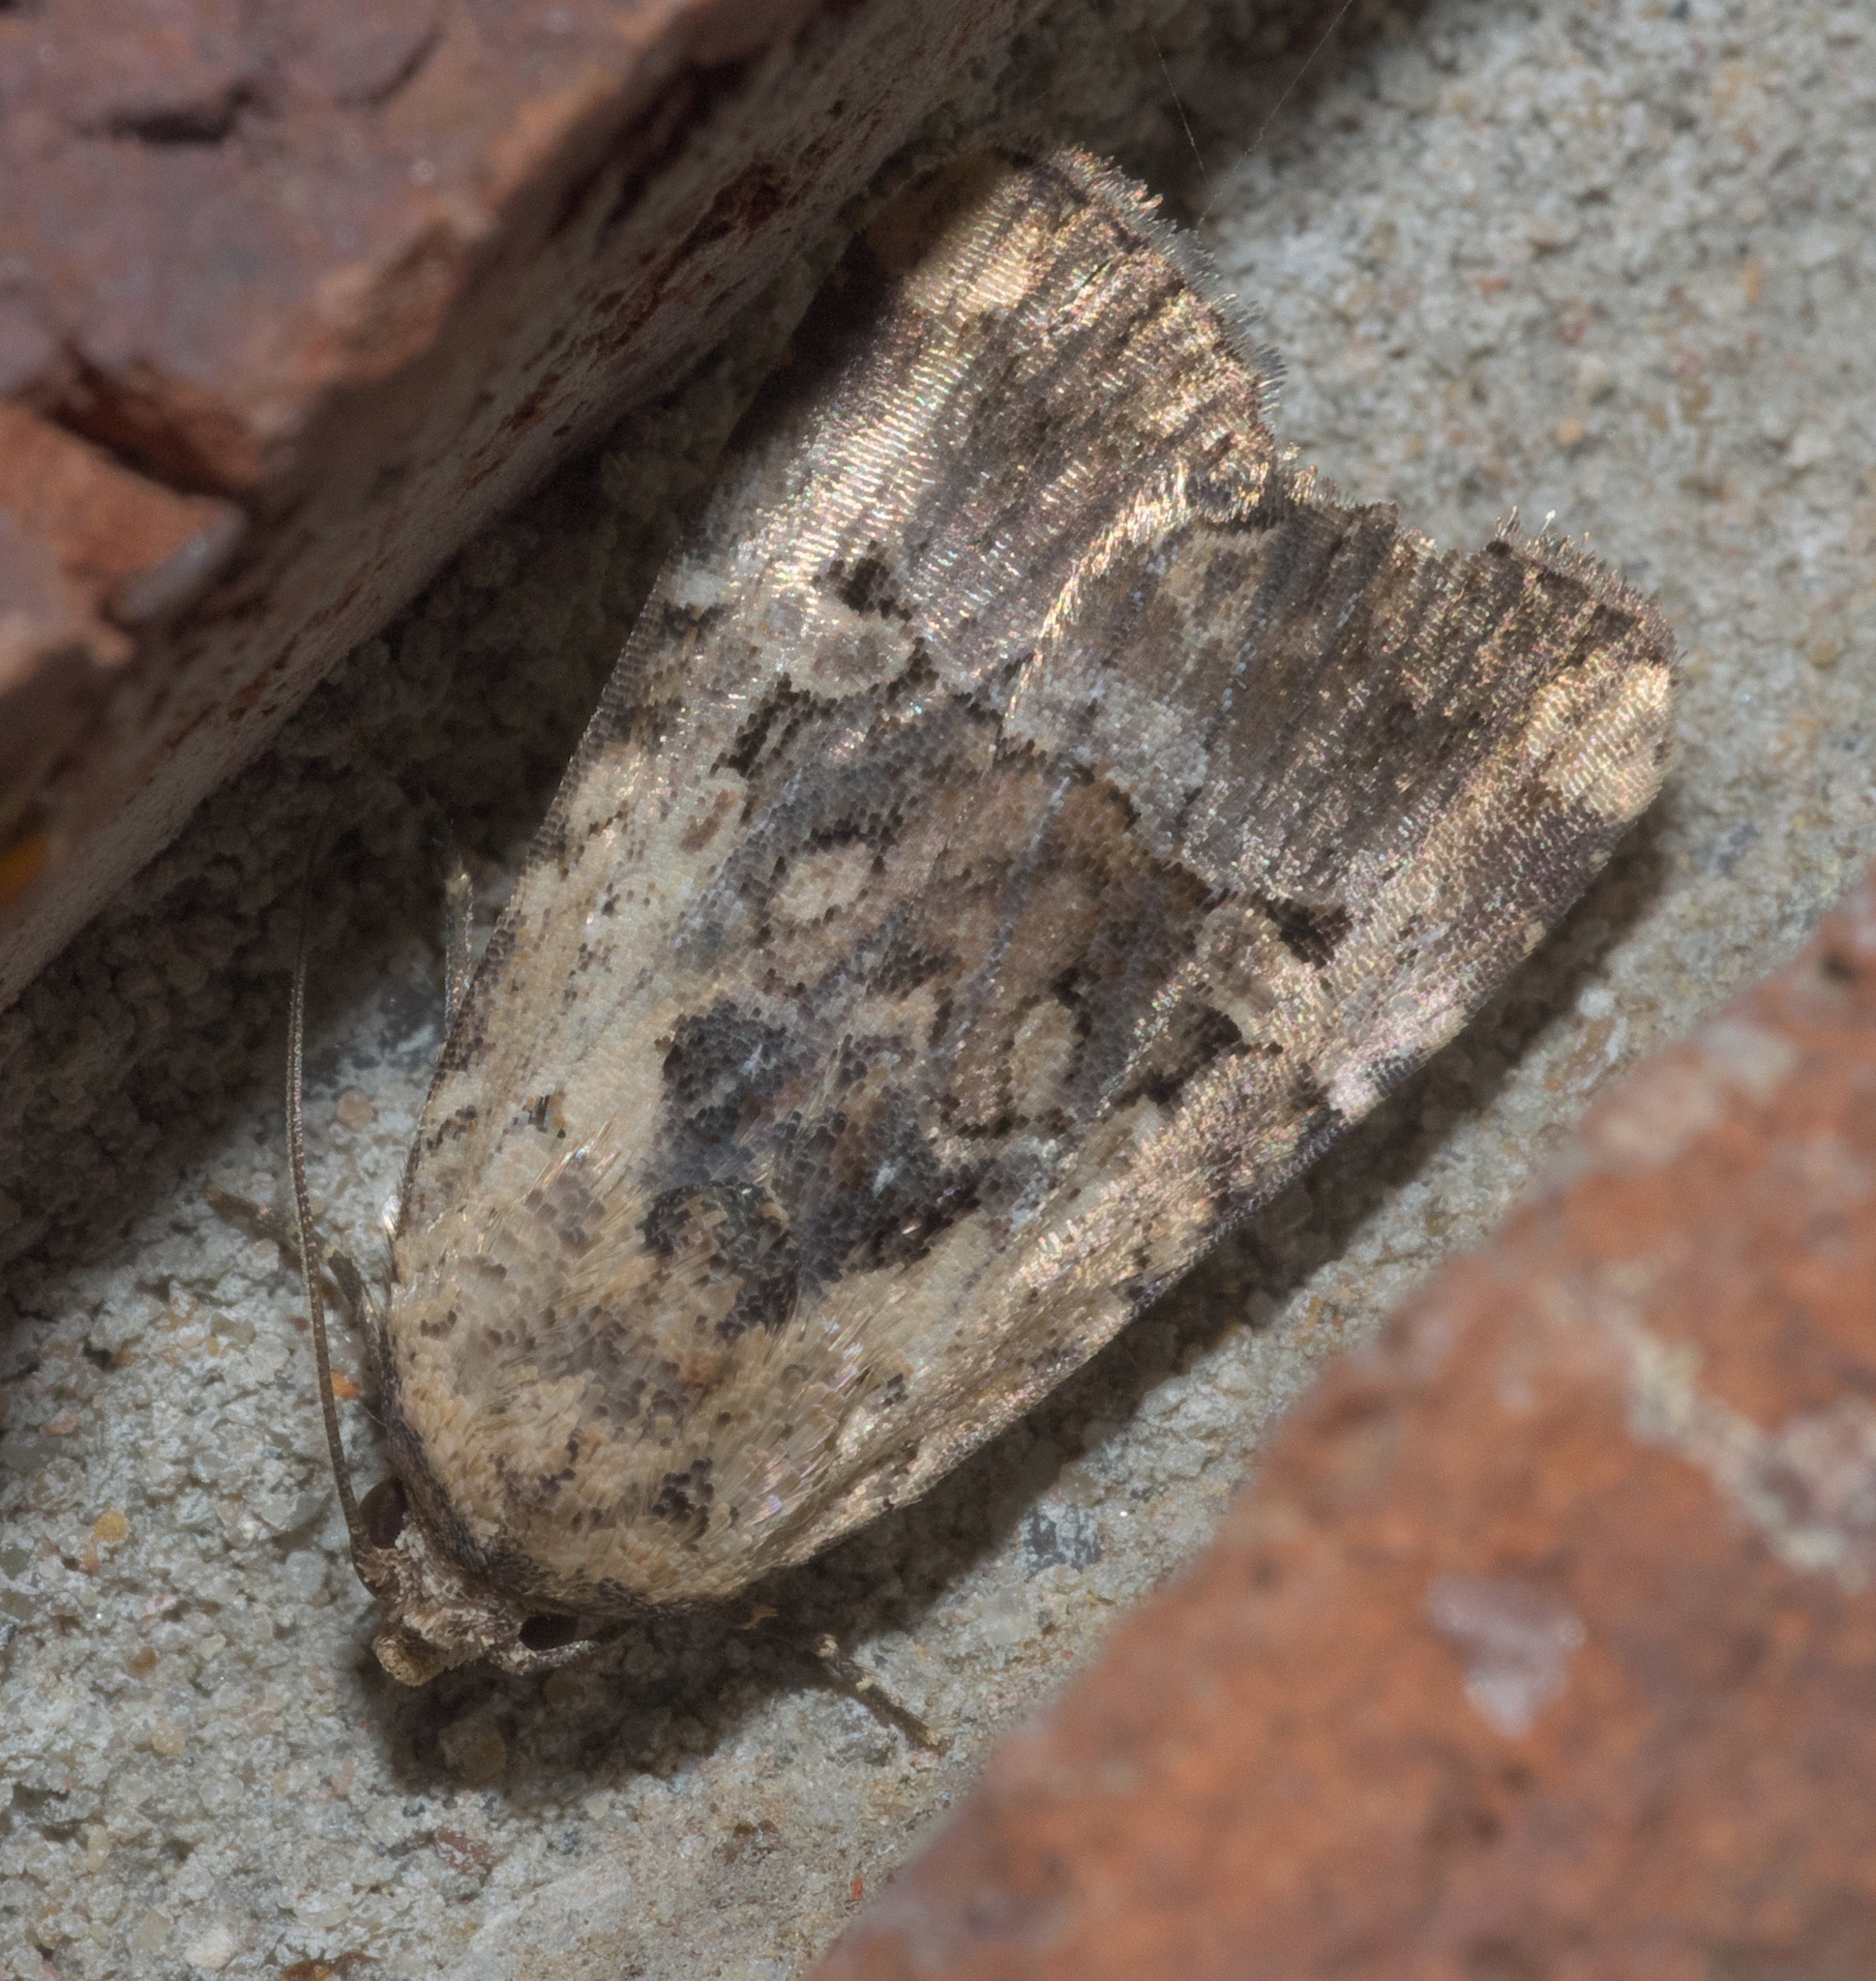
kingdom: Animalia
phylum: Arthropoda
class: Insecta
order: Lepidoptera
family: Noctuidae
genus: Elaphria
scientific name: Elaphria chalcedonia
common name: Chalcedony midget
